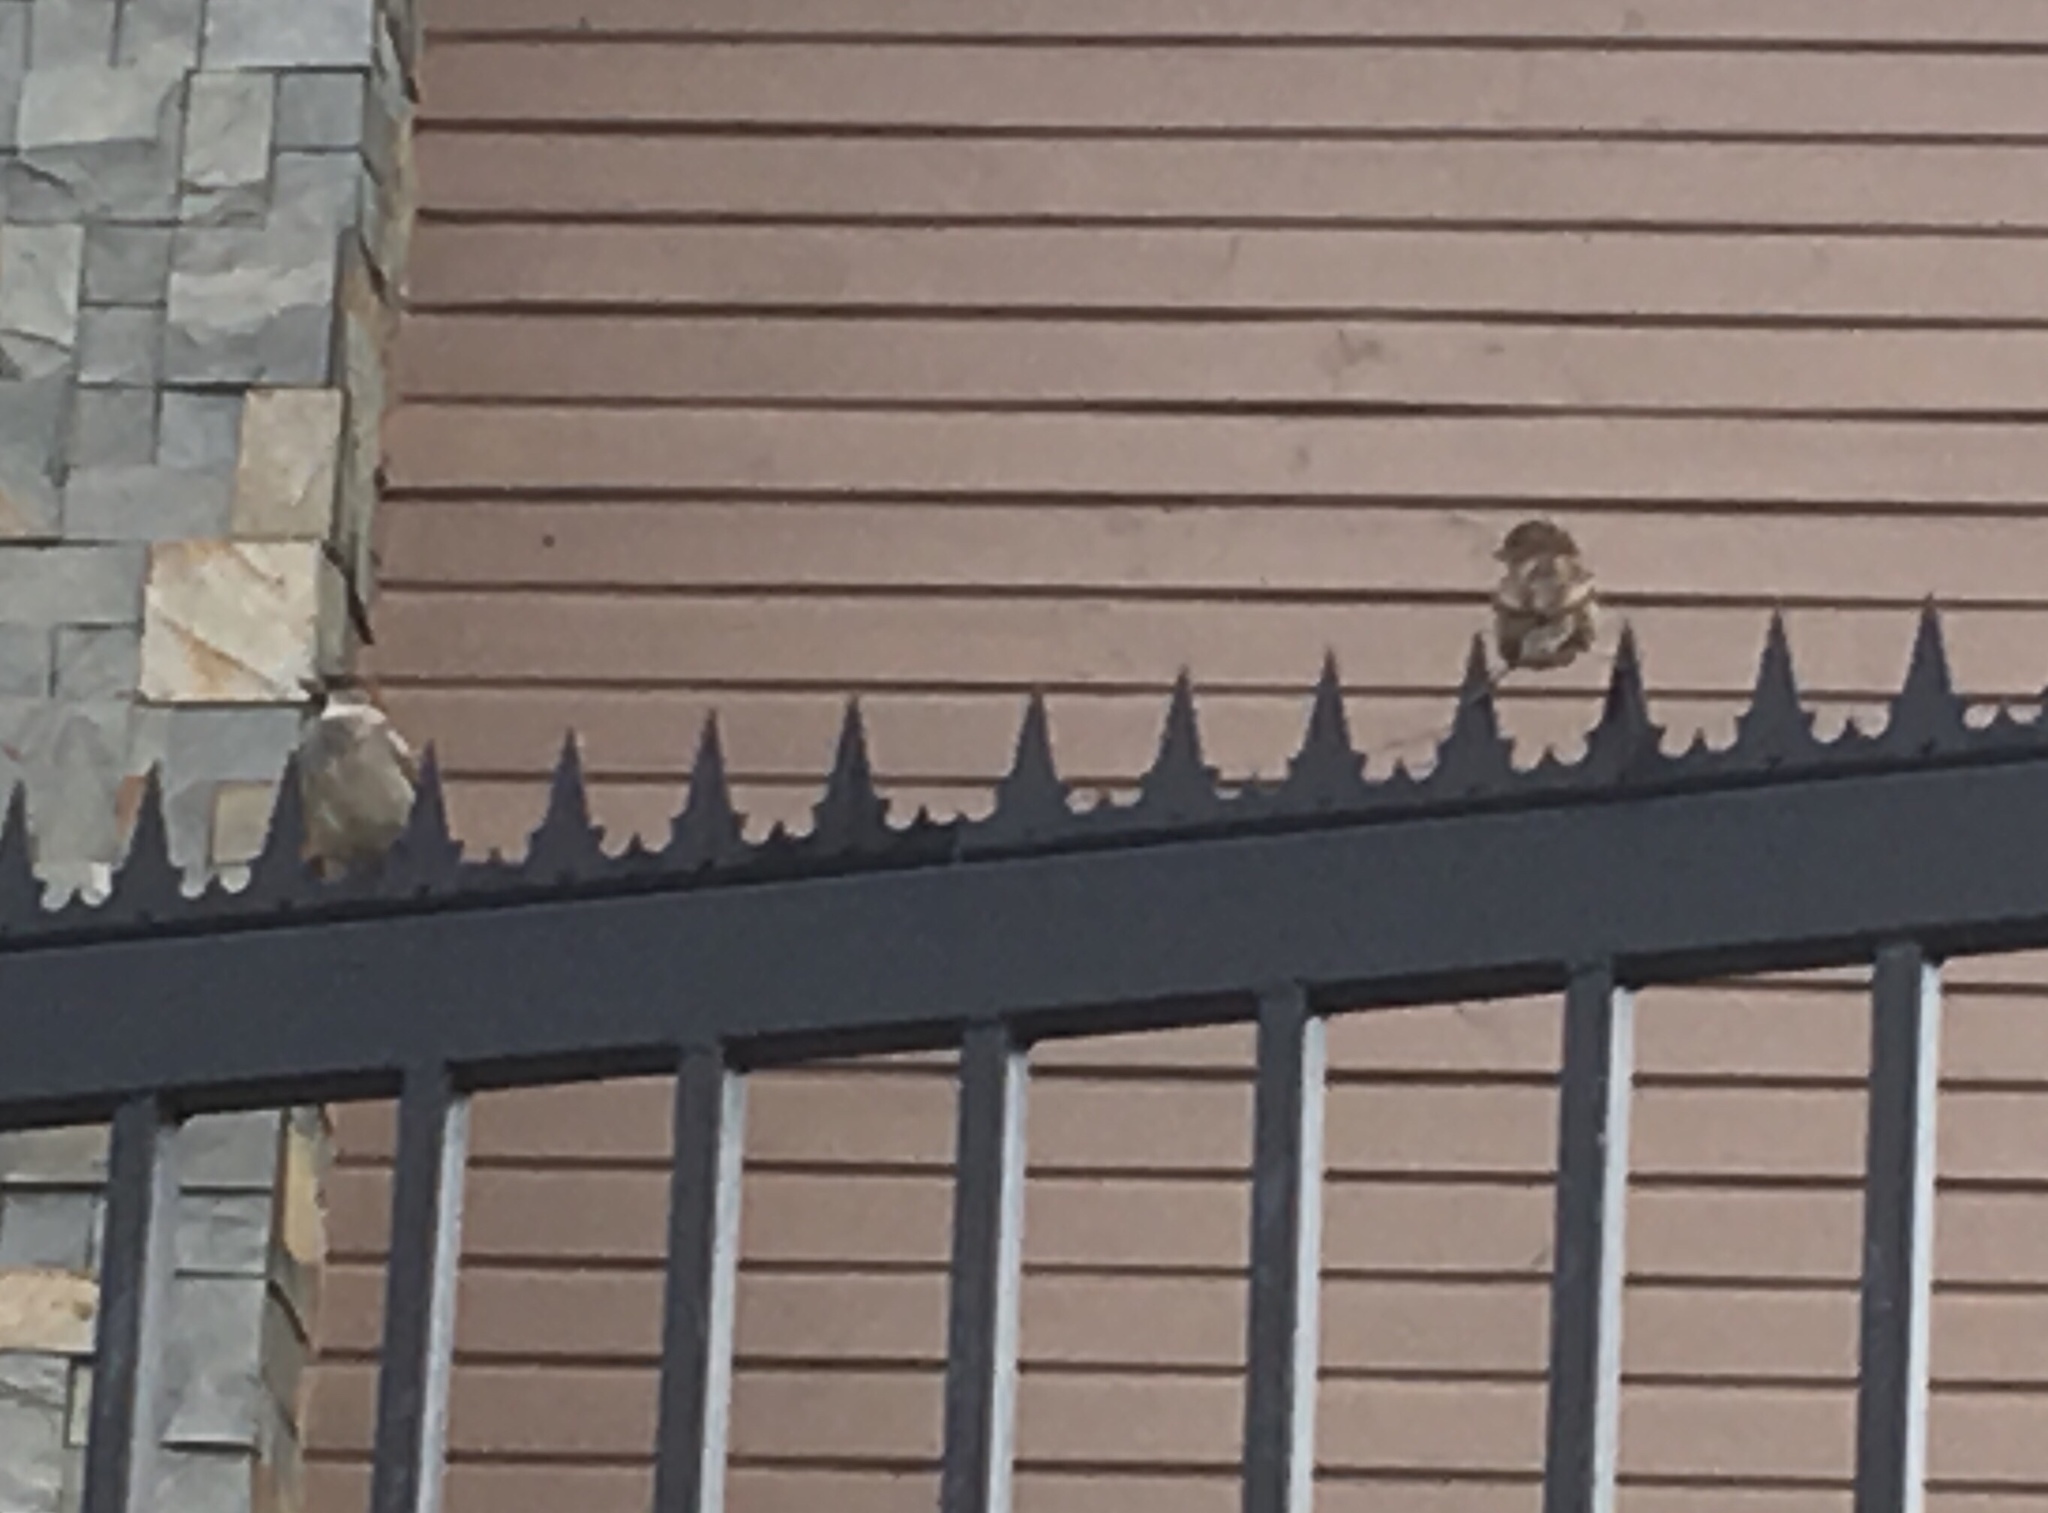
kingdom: Animalia
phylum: Chordata
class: Aves
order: Passeriformes
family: Passeridae
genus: Passer
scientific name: Passer domesticus
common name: House sparrow
